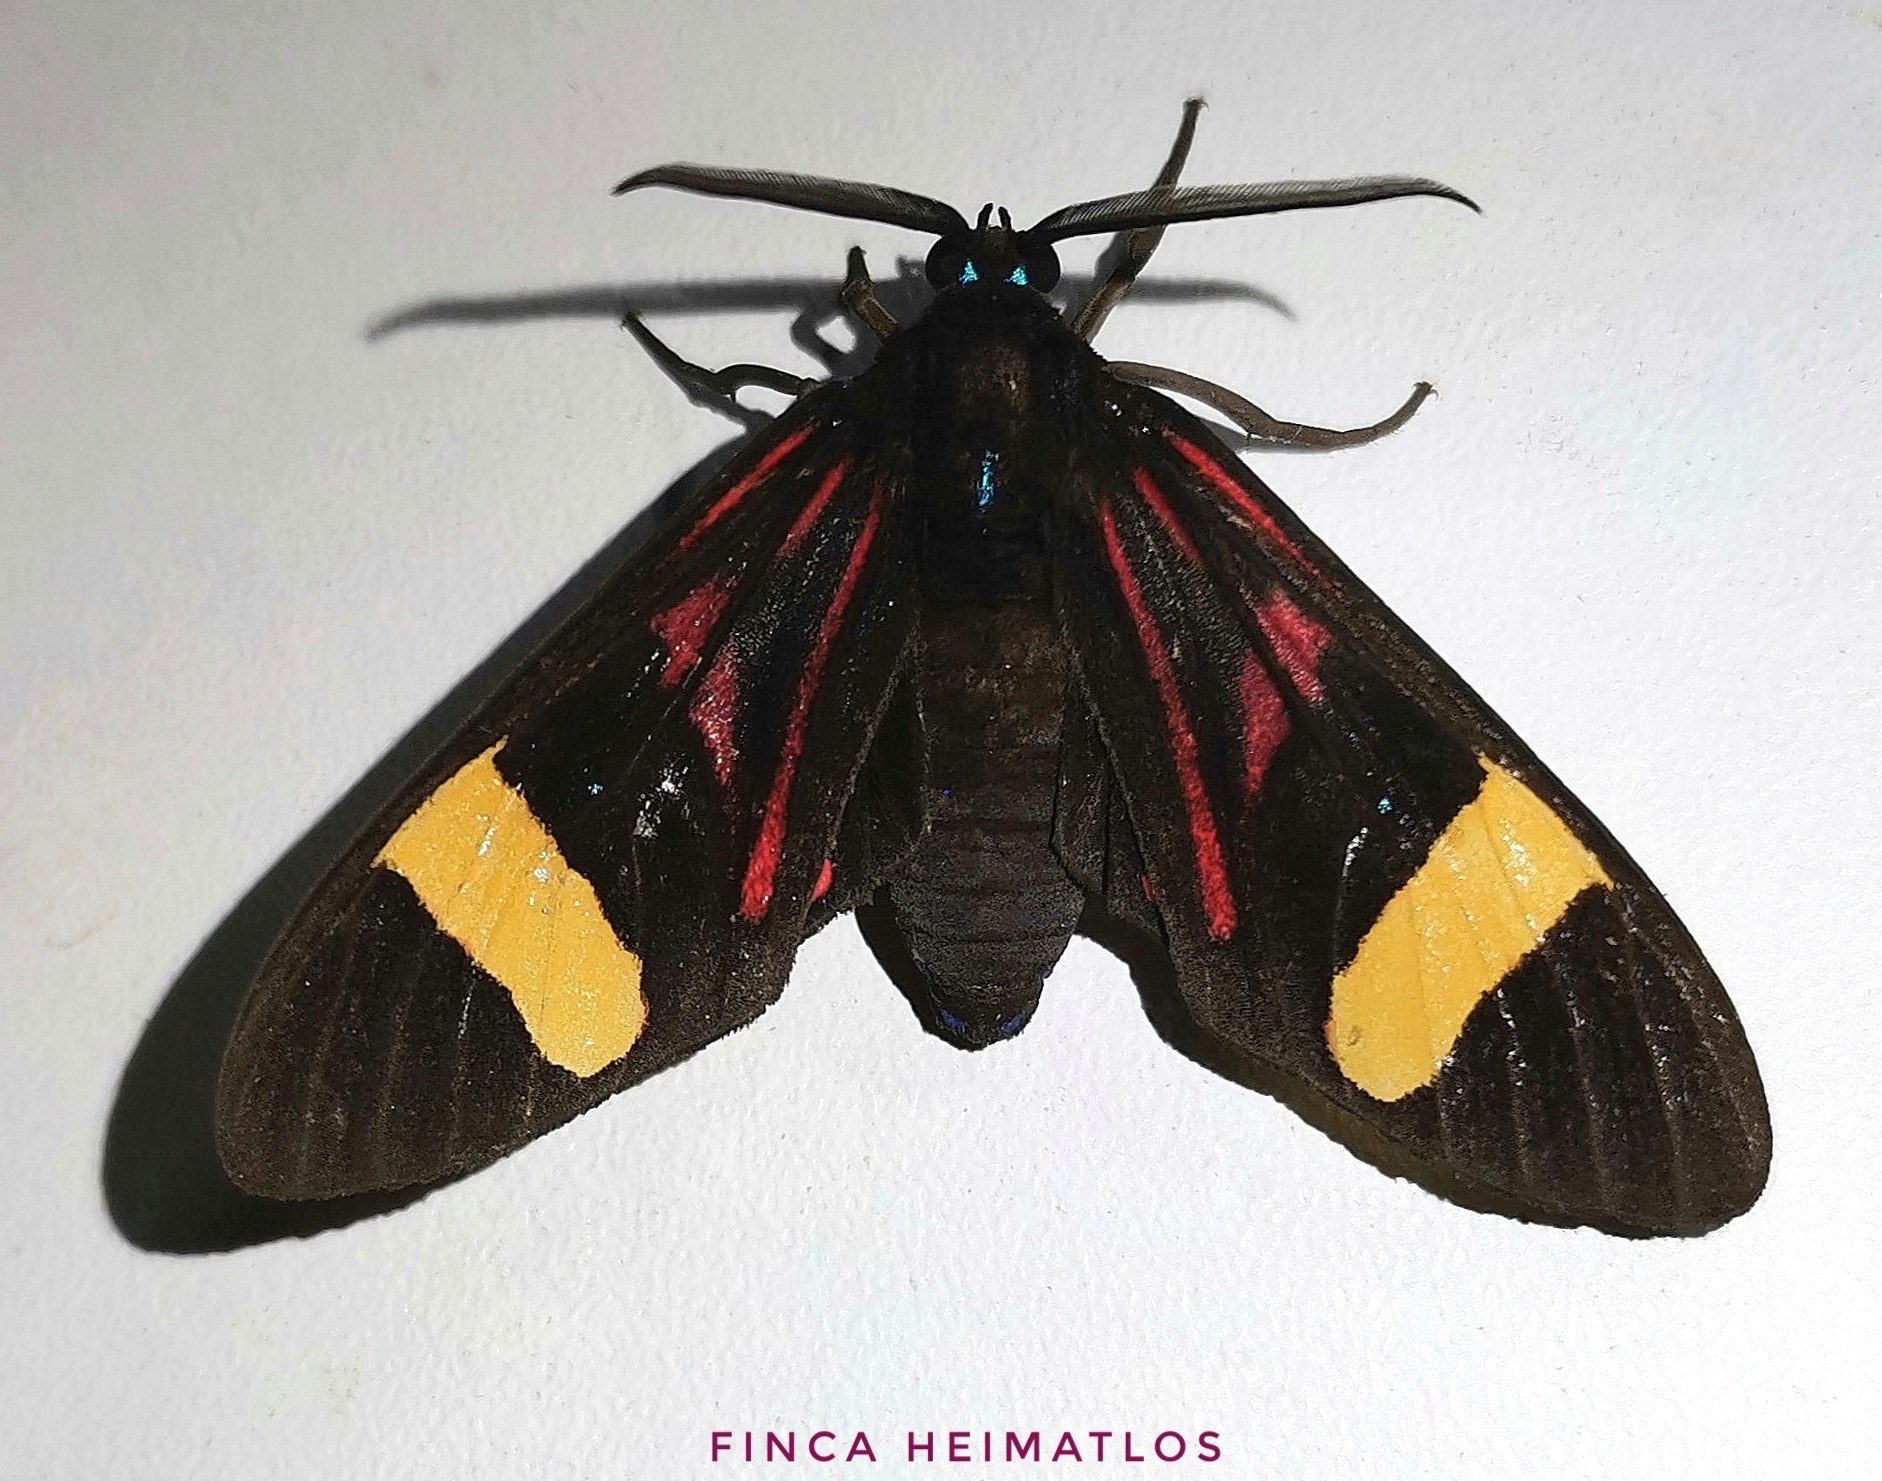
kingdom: Animalia
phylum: Arthropoda
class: Insecta
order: Lepidoptera
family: Erebidae
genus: Histioea
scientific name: Histioea proserpina
